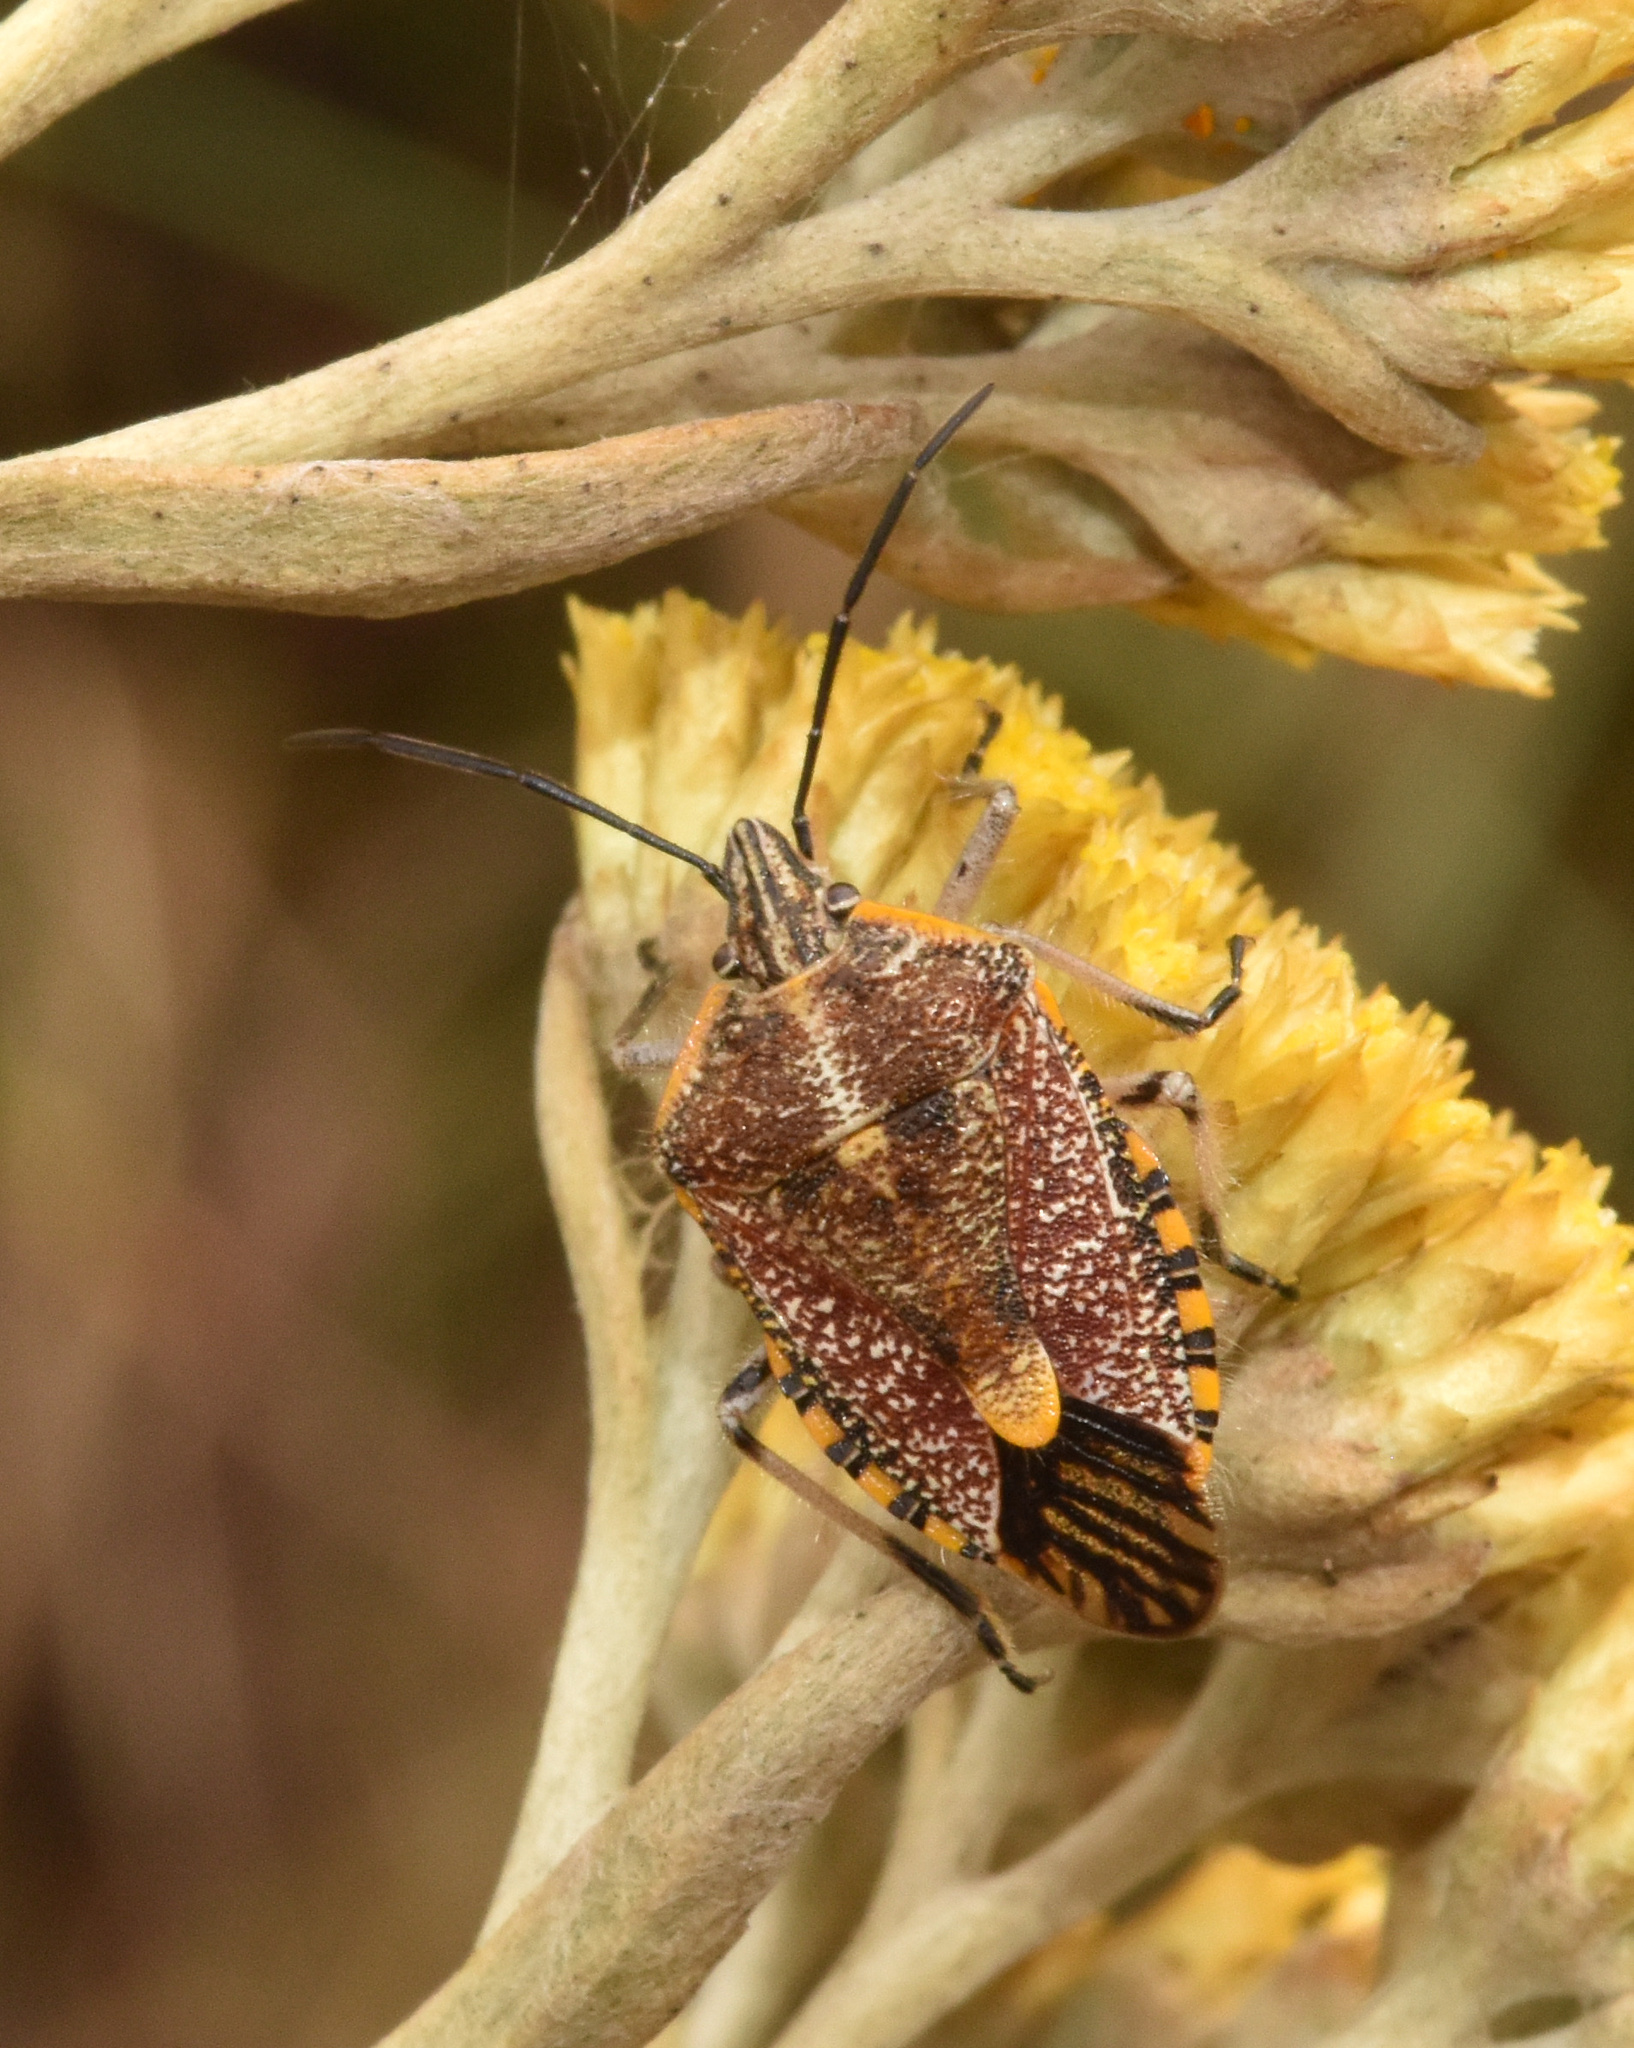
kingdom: Animalia
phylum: Arthropoda
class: Insecta
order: Hemiptera
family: Pentatomidae
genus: Agonoscelis
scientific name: Agonoscelis versicoloratus
